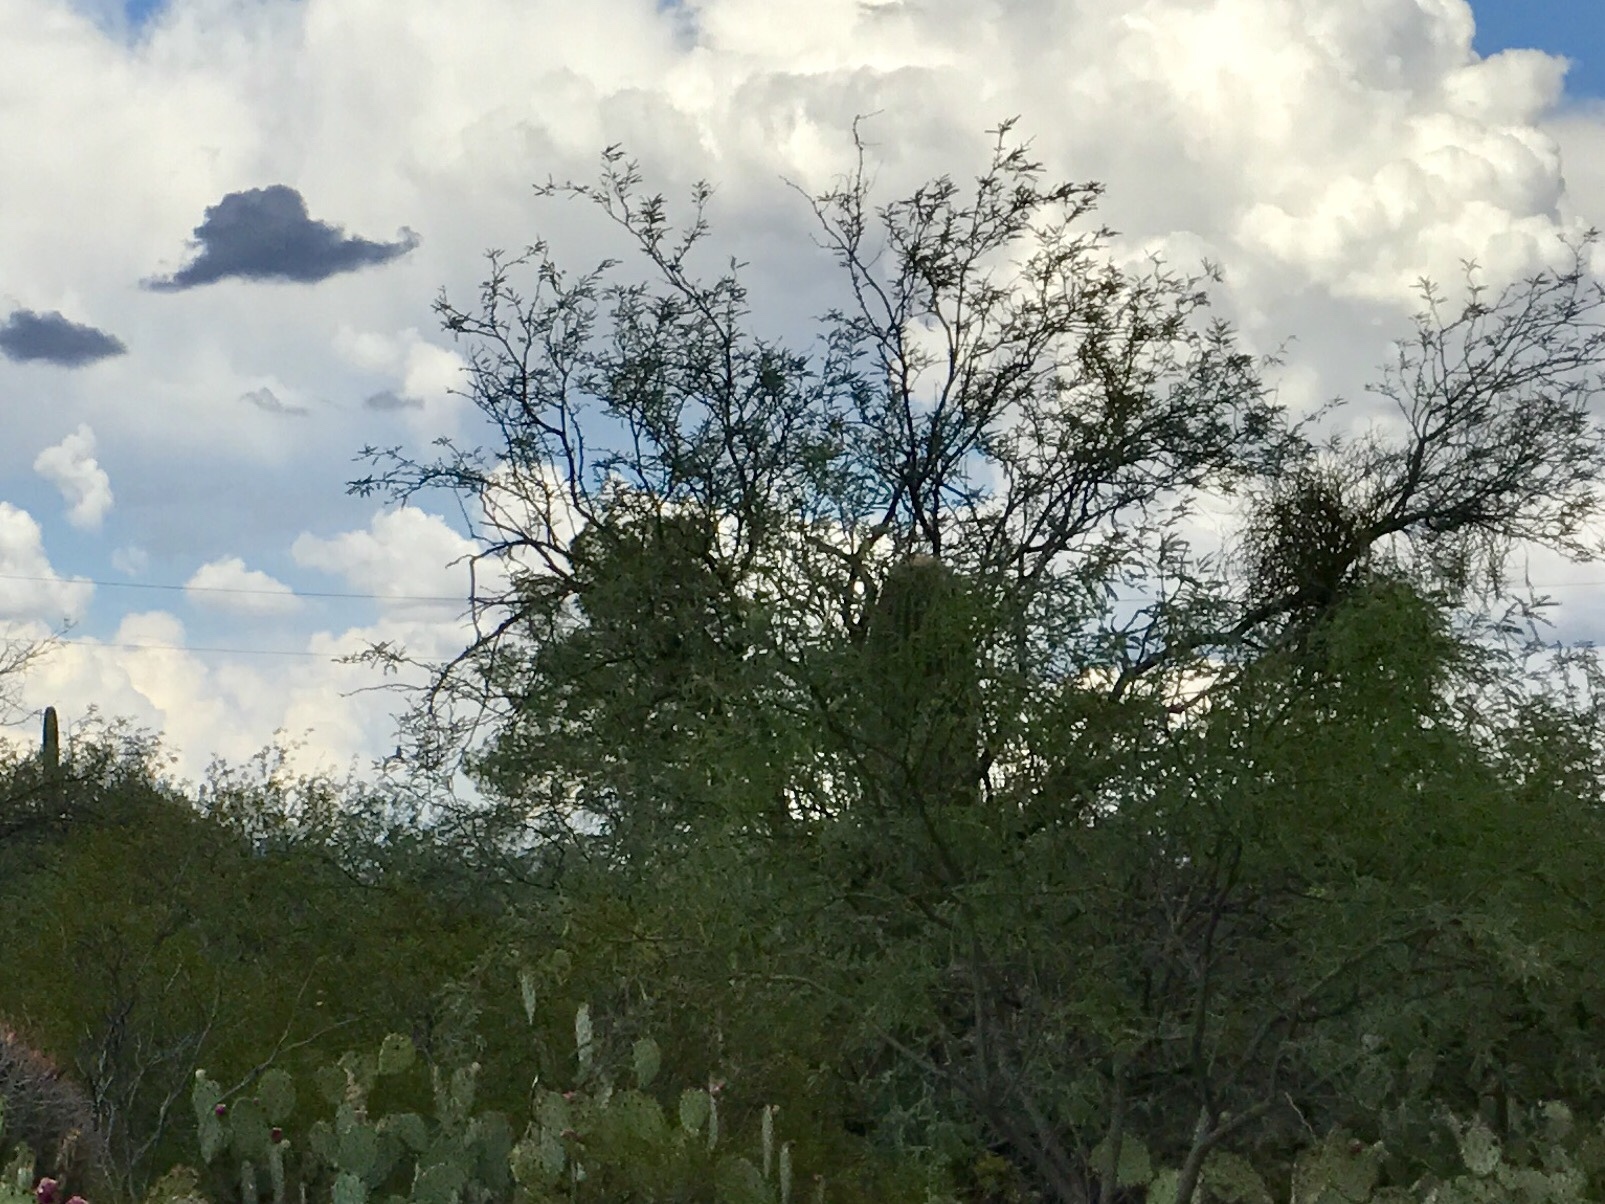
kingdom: Plantae
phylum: Tracheophyta
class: Magnoliopsida
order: Fabales
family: Fabaceae
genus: Prosopis
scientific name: Prosopis glandulosa
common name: Honey mesquite
